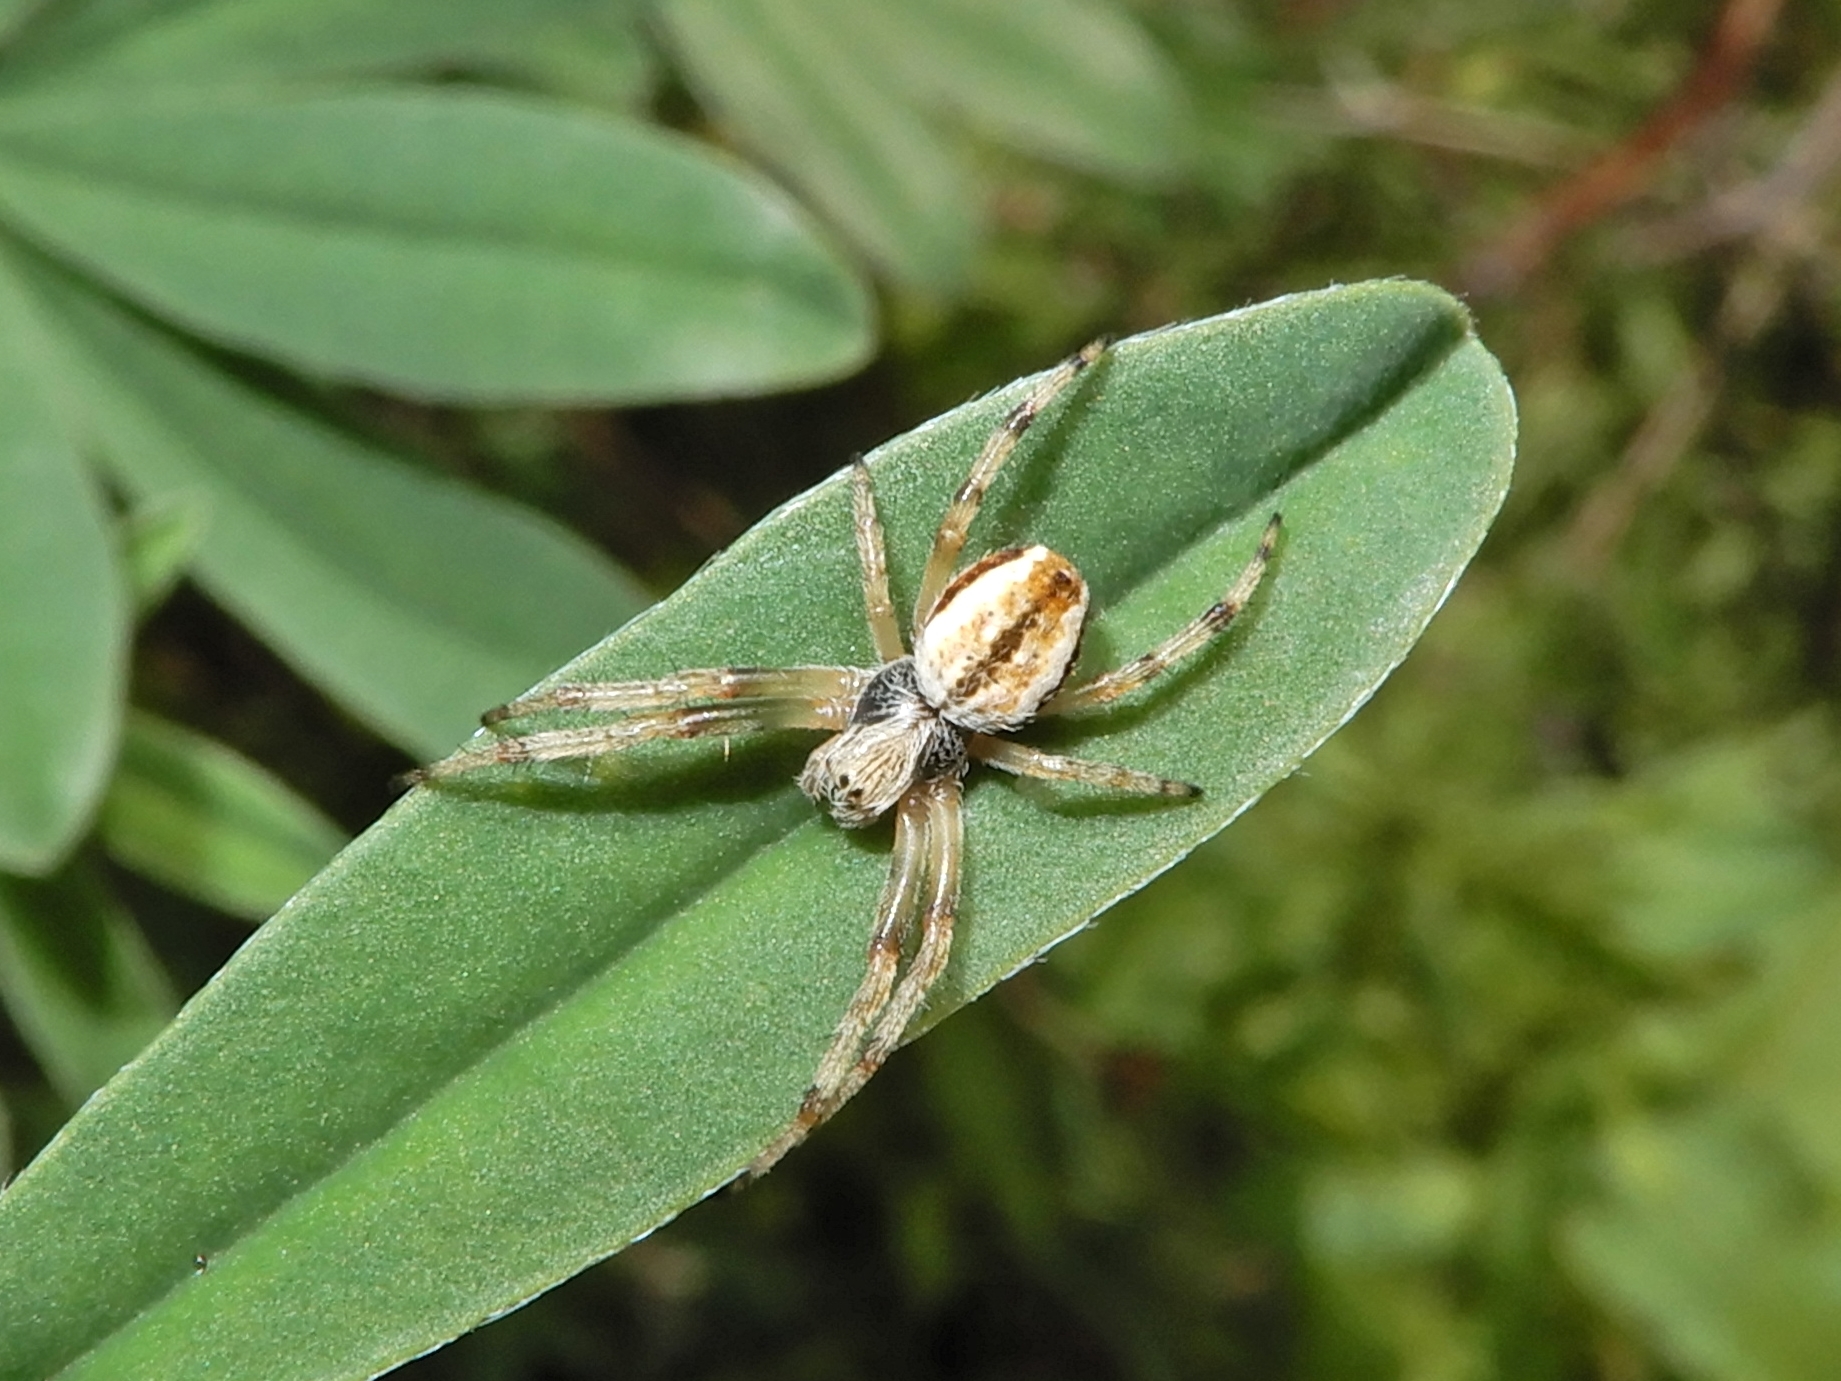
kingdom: Animalia
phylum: Arthropoda
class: Arachnida
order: Araneae
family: Araneidae
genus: Salsa
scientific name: Salsa fuliginata
